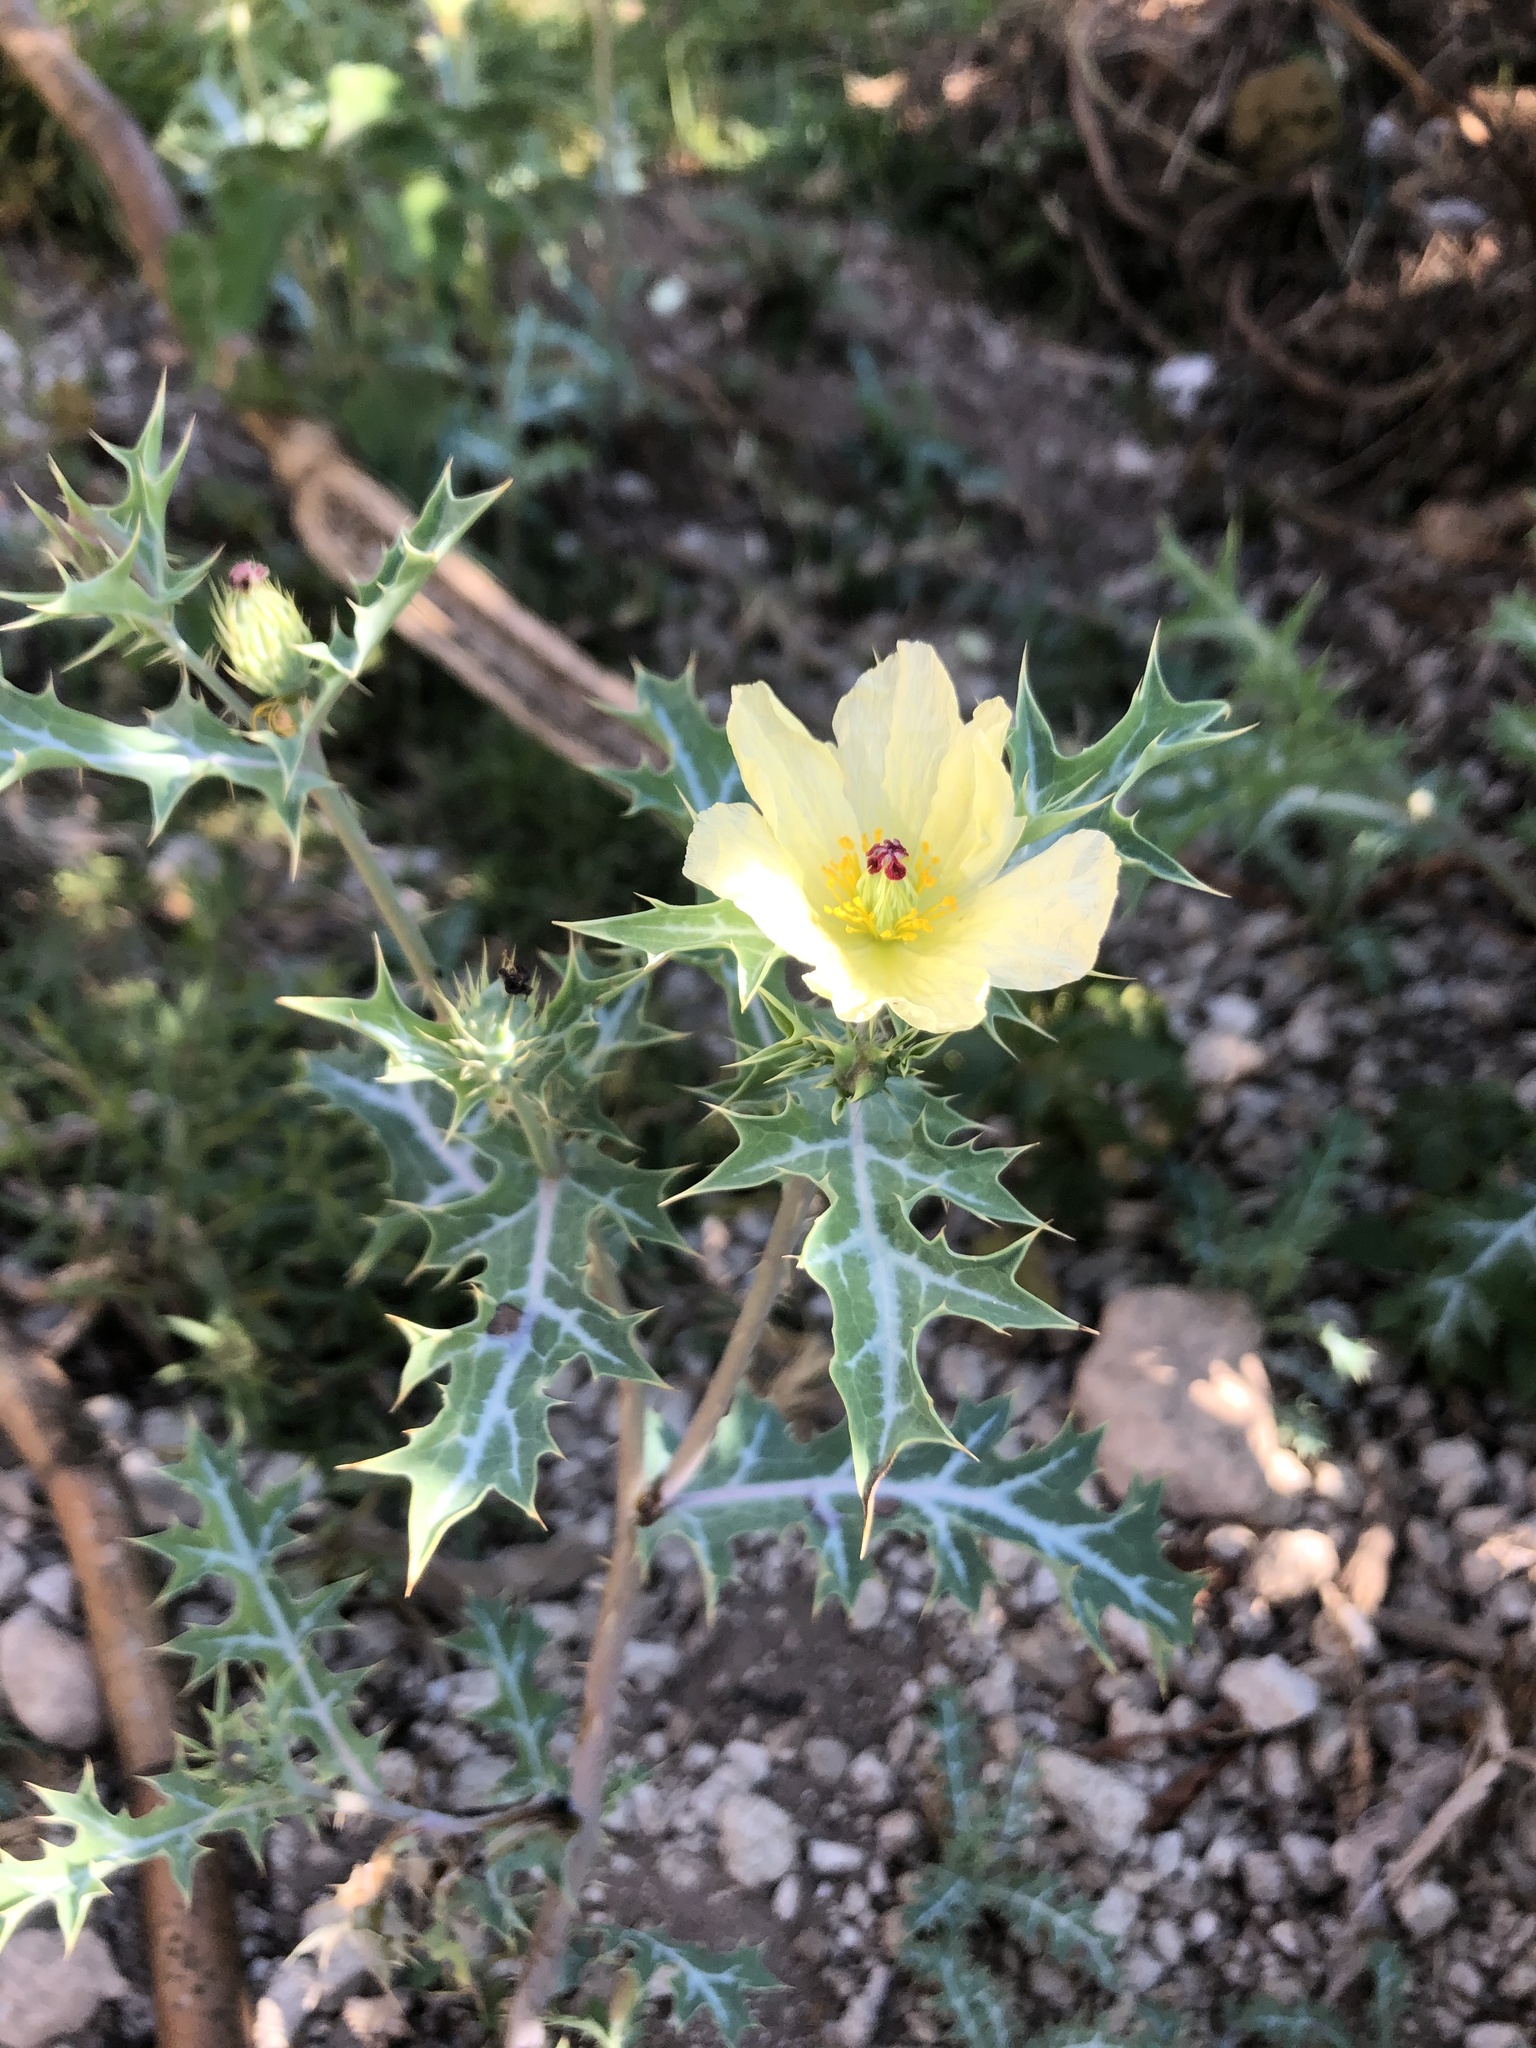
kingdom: Plantae
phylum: Tracheophyta
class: Magnoliopsida
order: Ranunculales
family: Papaveraceae
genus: Argemone
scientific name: Argemone ochroleuca
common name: White-flower mexican-poppy
